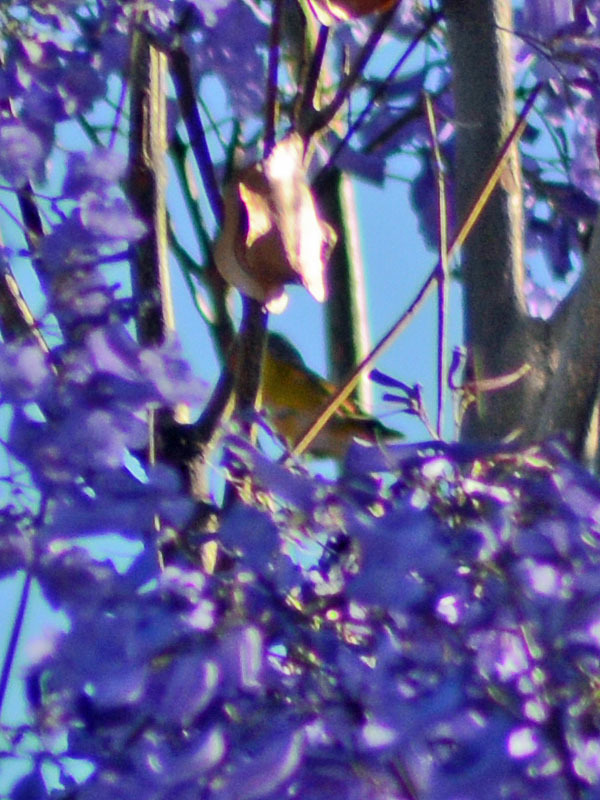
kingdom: Animalia
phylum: Chordata
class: Aves
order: Passeriformes
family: Parulidae
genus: Leiothlypis
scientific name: Leiothlypis ruficapilla
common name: Nashville warbler
